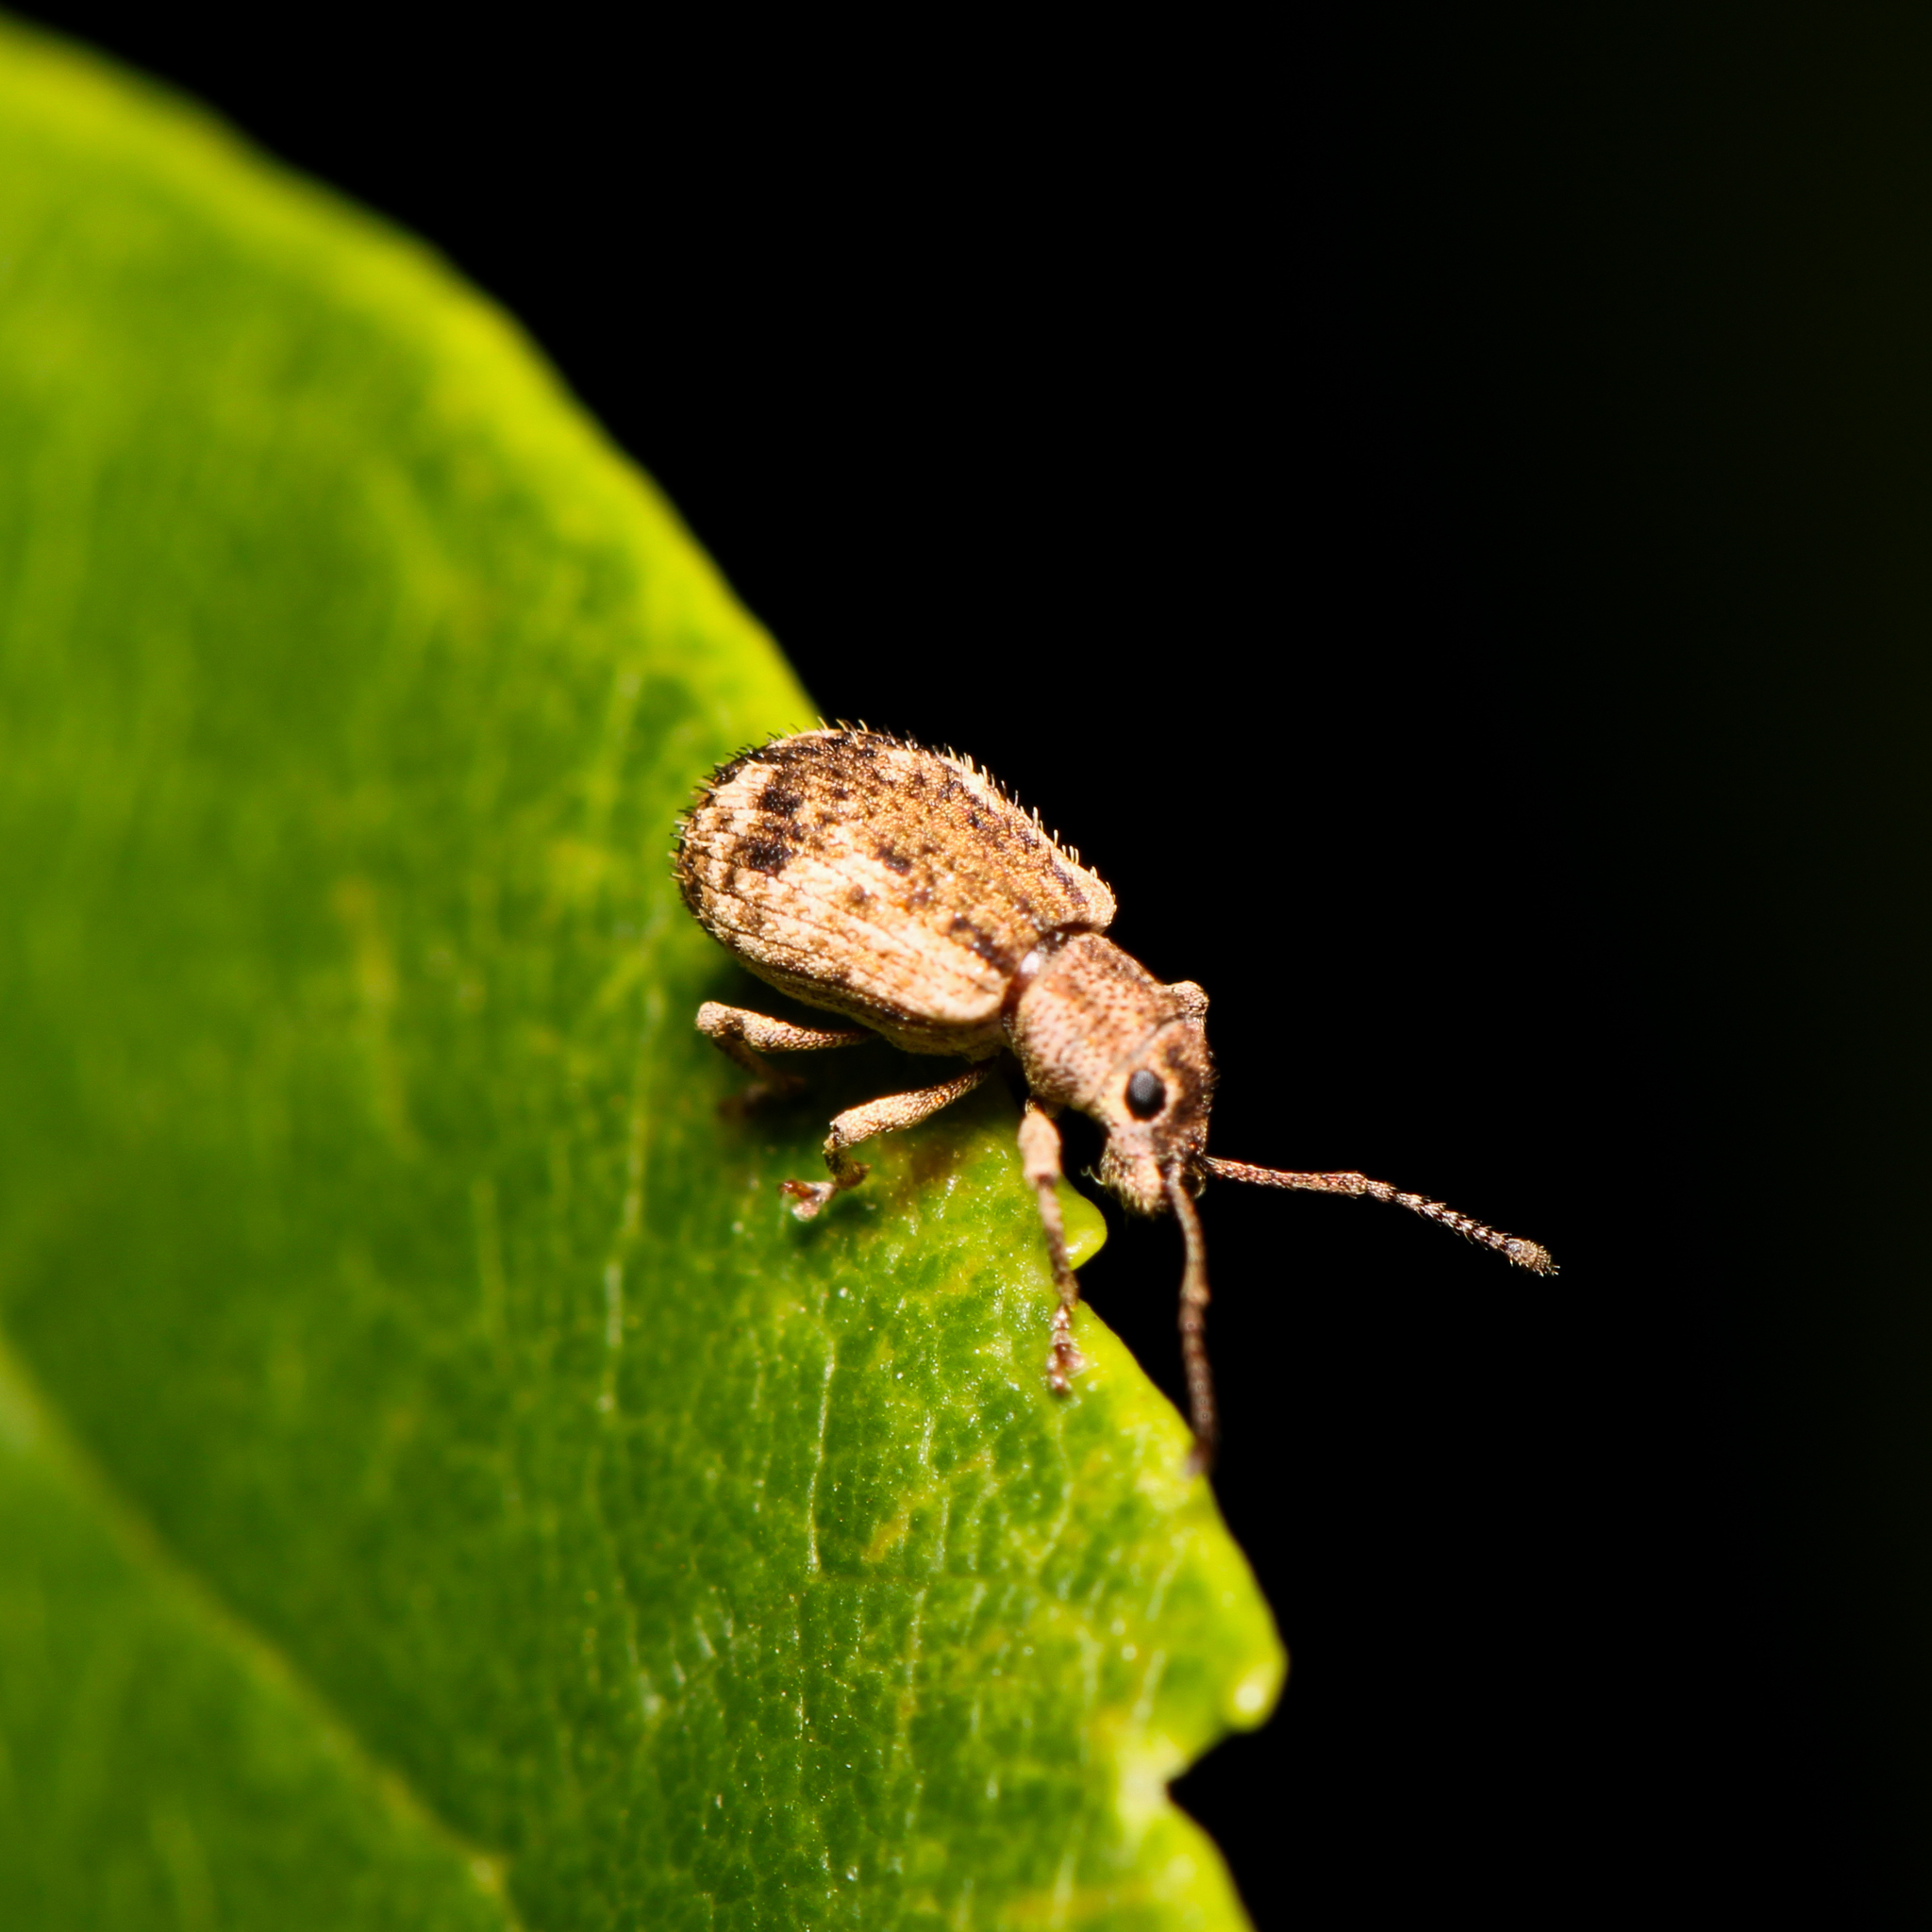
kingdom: Animalia
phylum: Arthropoda
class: Insecta
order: Coleoptera
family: Curculionidae
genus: Pseudoedophrys
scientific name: Pseudoedophrys hilleri
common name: Weevil
